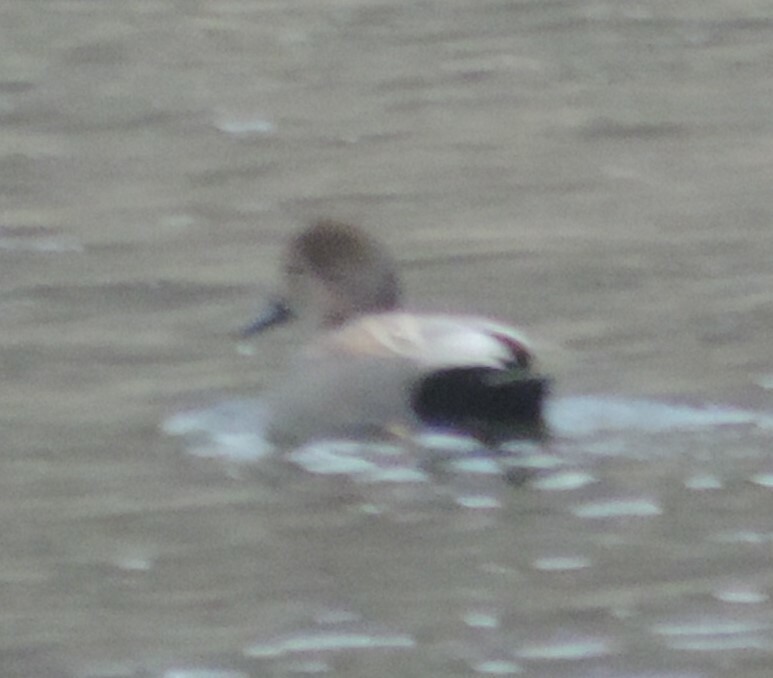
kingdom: Animalia
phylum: Chordata
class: Aves
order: Anseriformes
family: Anatidae
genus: Mareca
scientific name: Mareca strepera
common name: Gadwall
